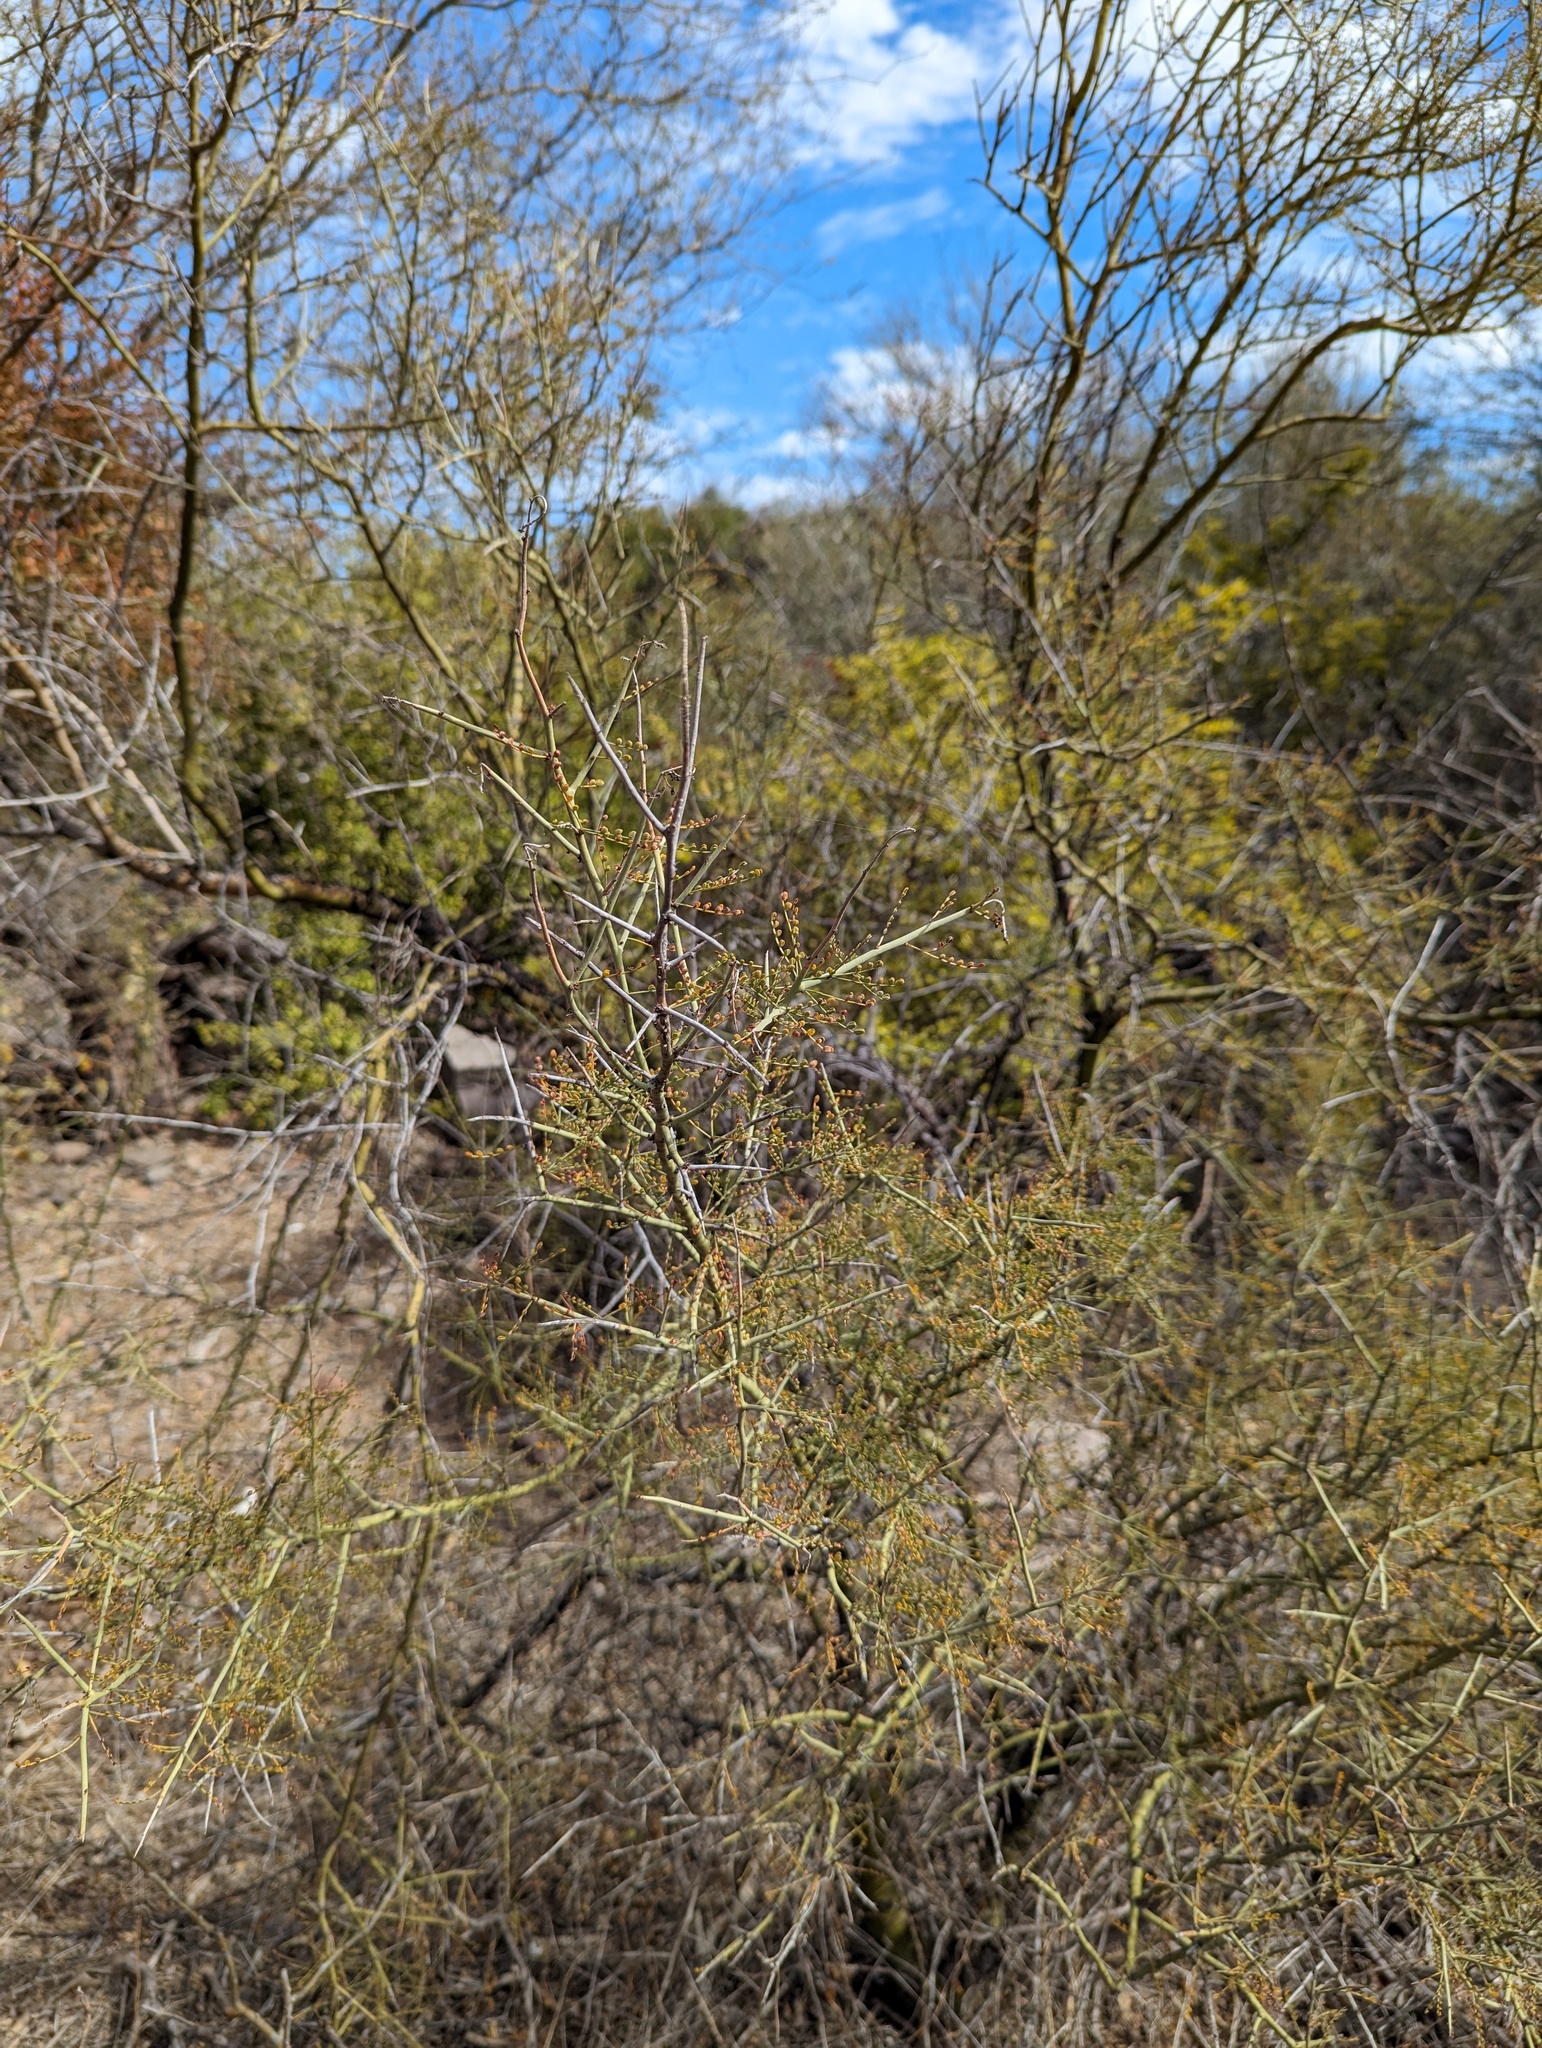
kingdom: Plantae
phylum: Tracheophyta
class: Magnoliopsida
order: Fabales
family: Fabaceae
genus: Parkinsonia
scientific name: Parkinsonia microphylla
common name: Yellow paloverde
